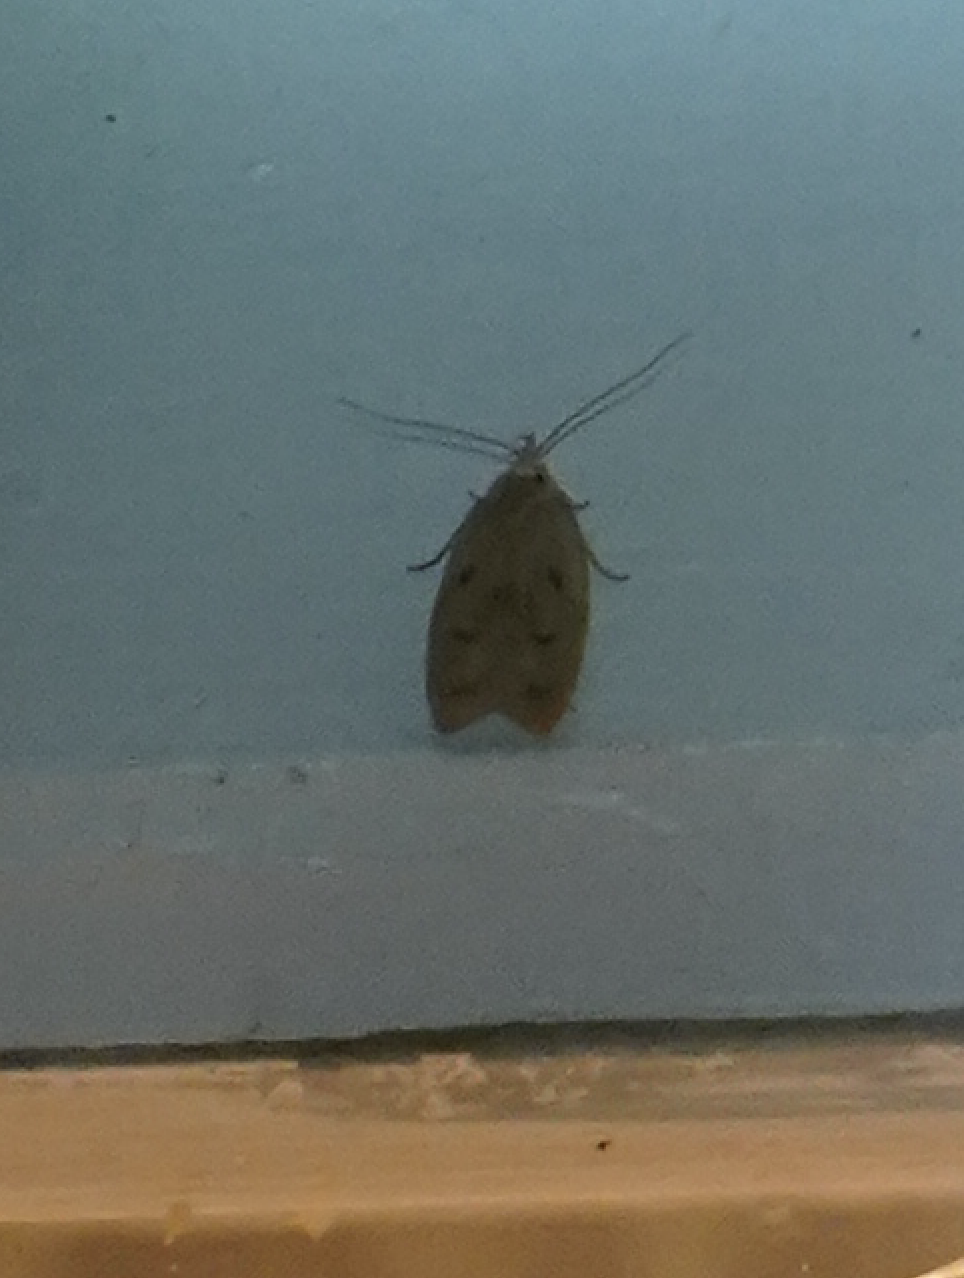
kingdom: Animalia
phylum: Arthropoda
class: Insecta
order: Lepidoptera
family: Peleopodidae
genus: Machimia
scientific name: Machimia tentoriferella
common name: Gold-striped leaftier moth
